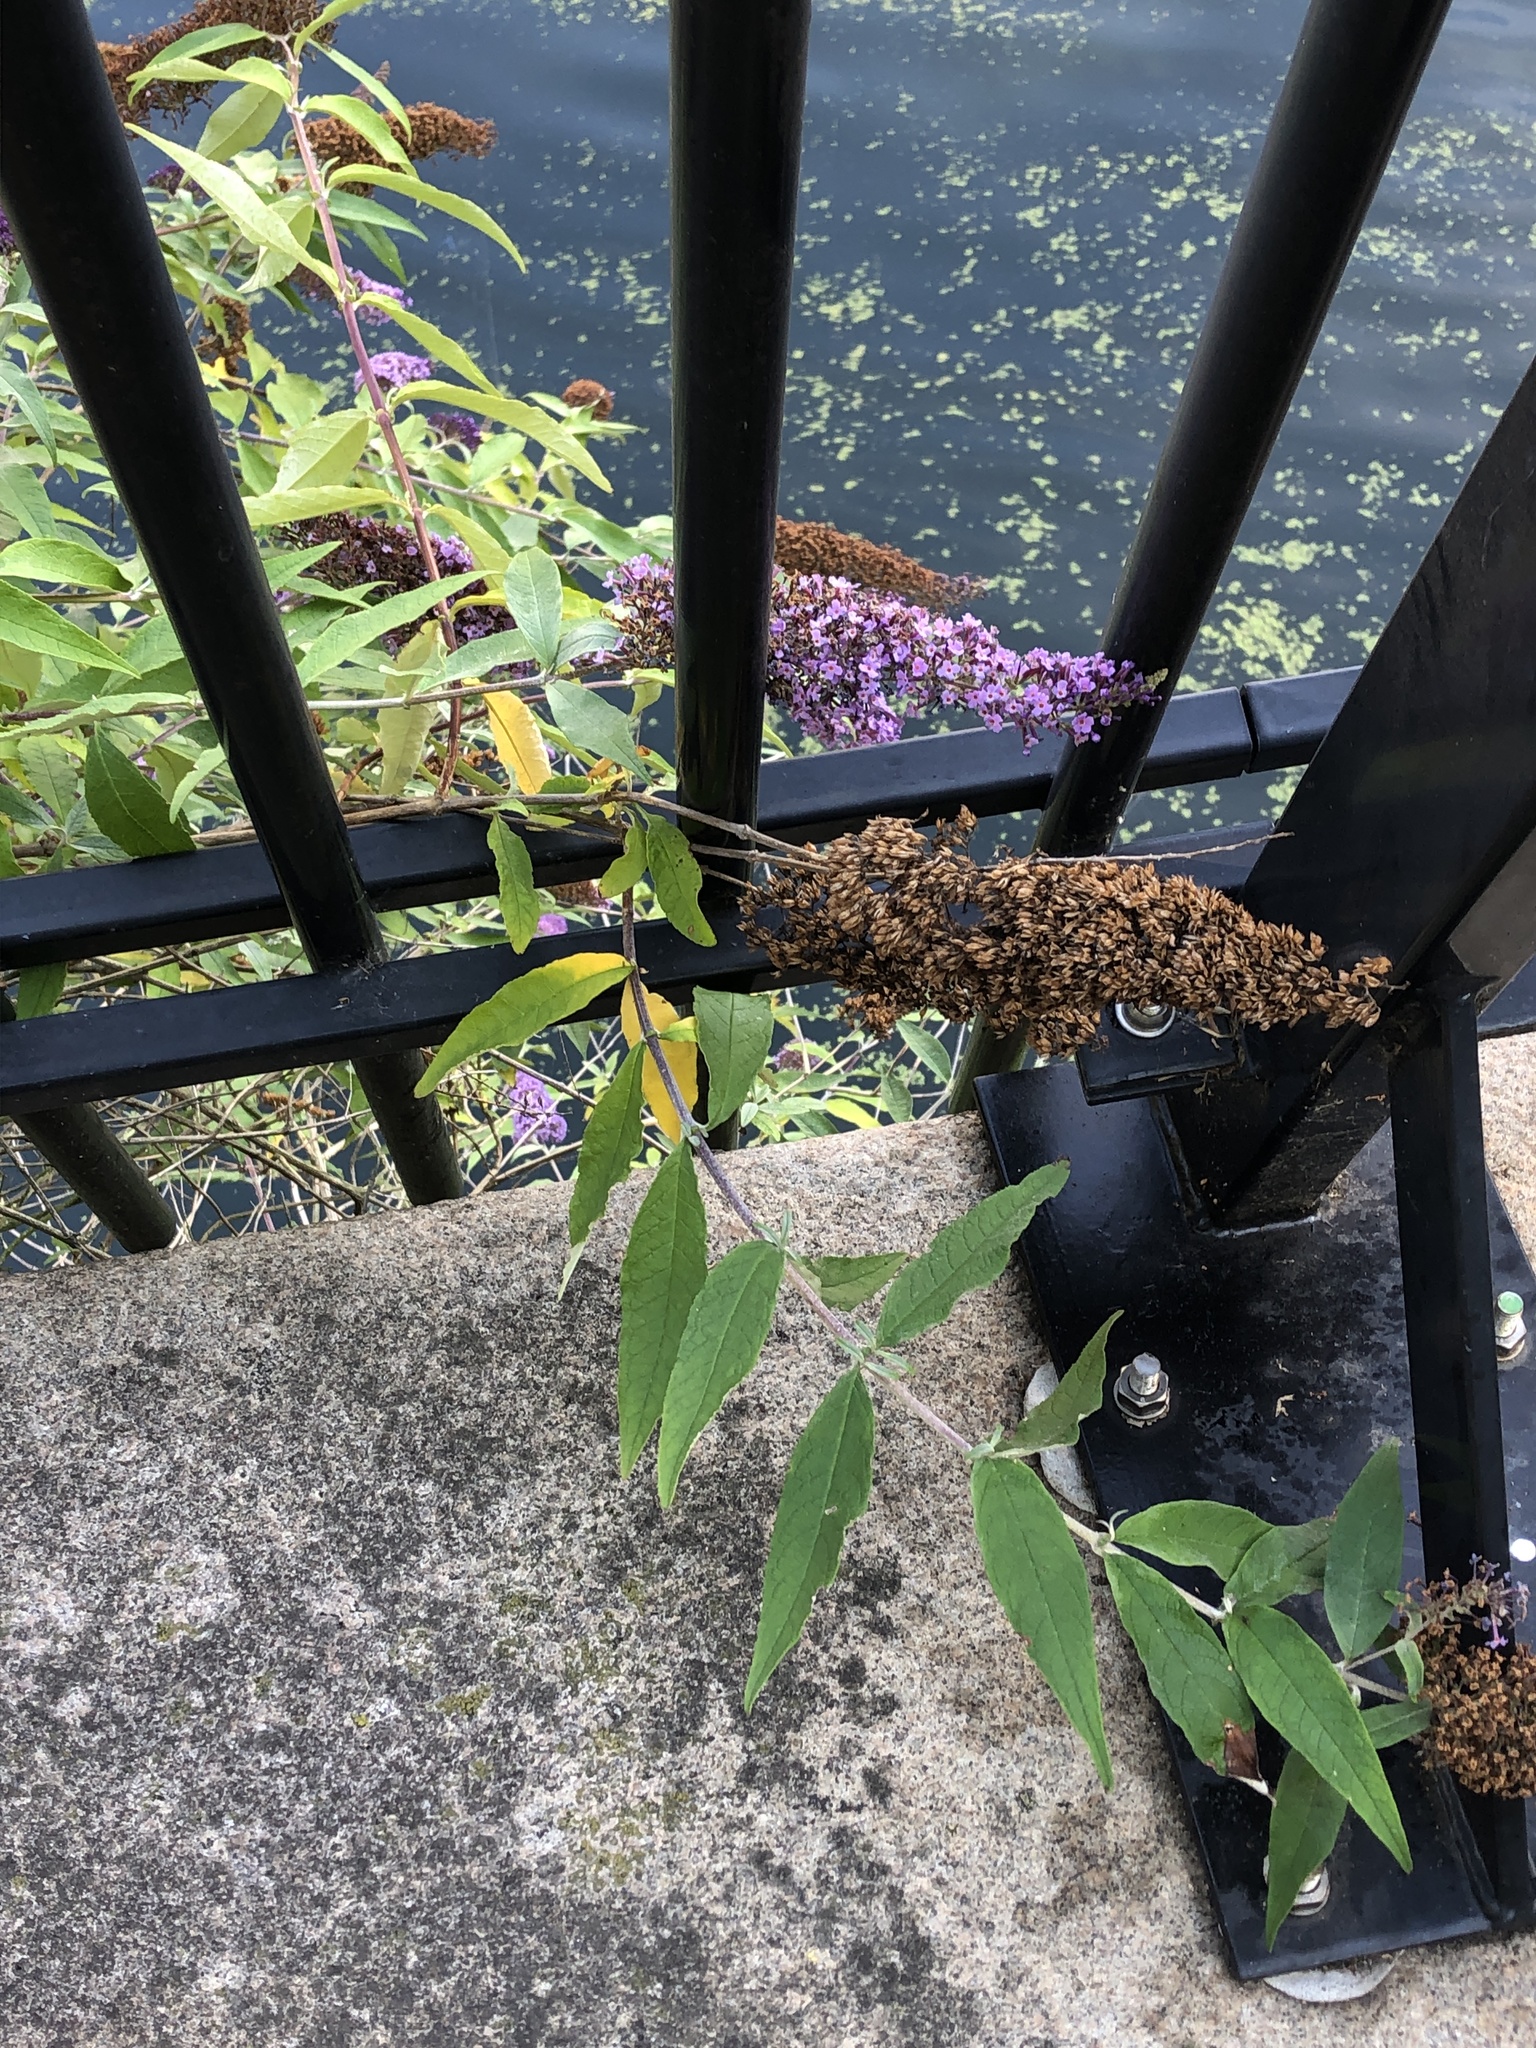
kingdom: Plantae
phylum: Tracheophyta
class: Magnoliopsida
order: Lamiales
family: Scrophulariaceae
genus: Buddleja
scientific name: Buddleja davidii
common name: Butterfly-bush
